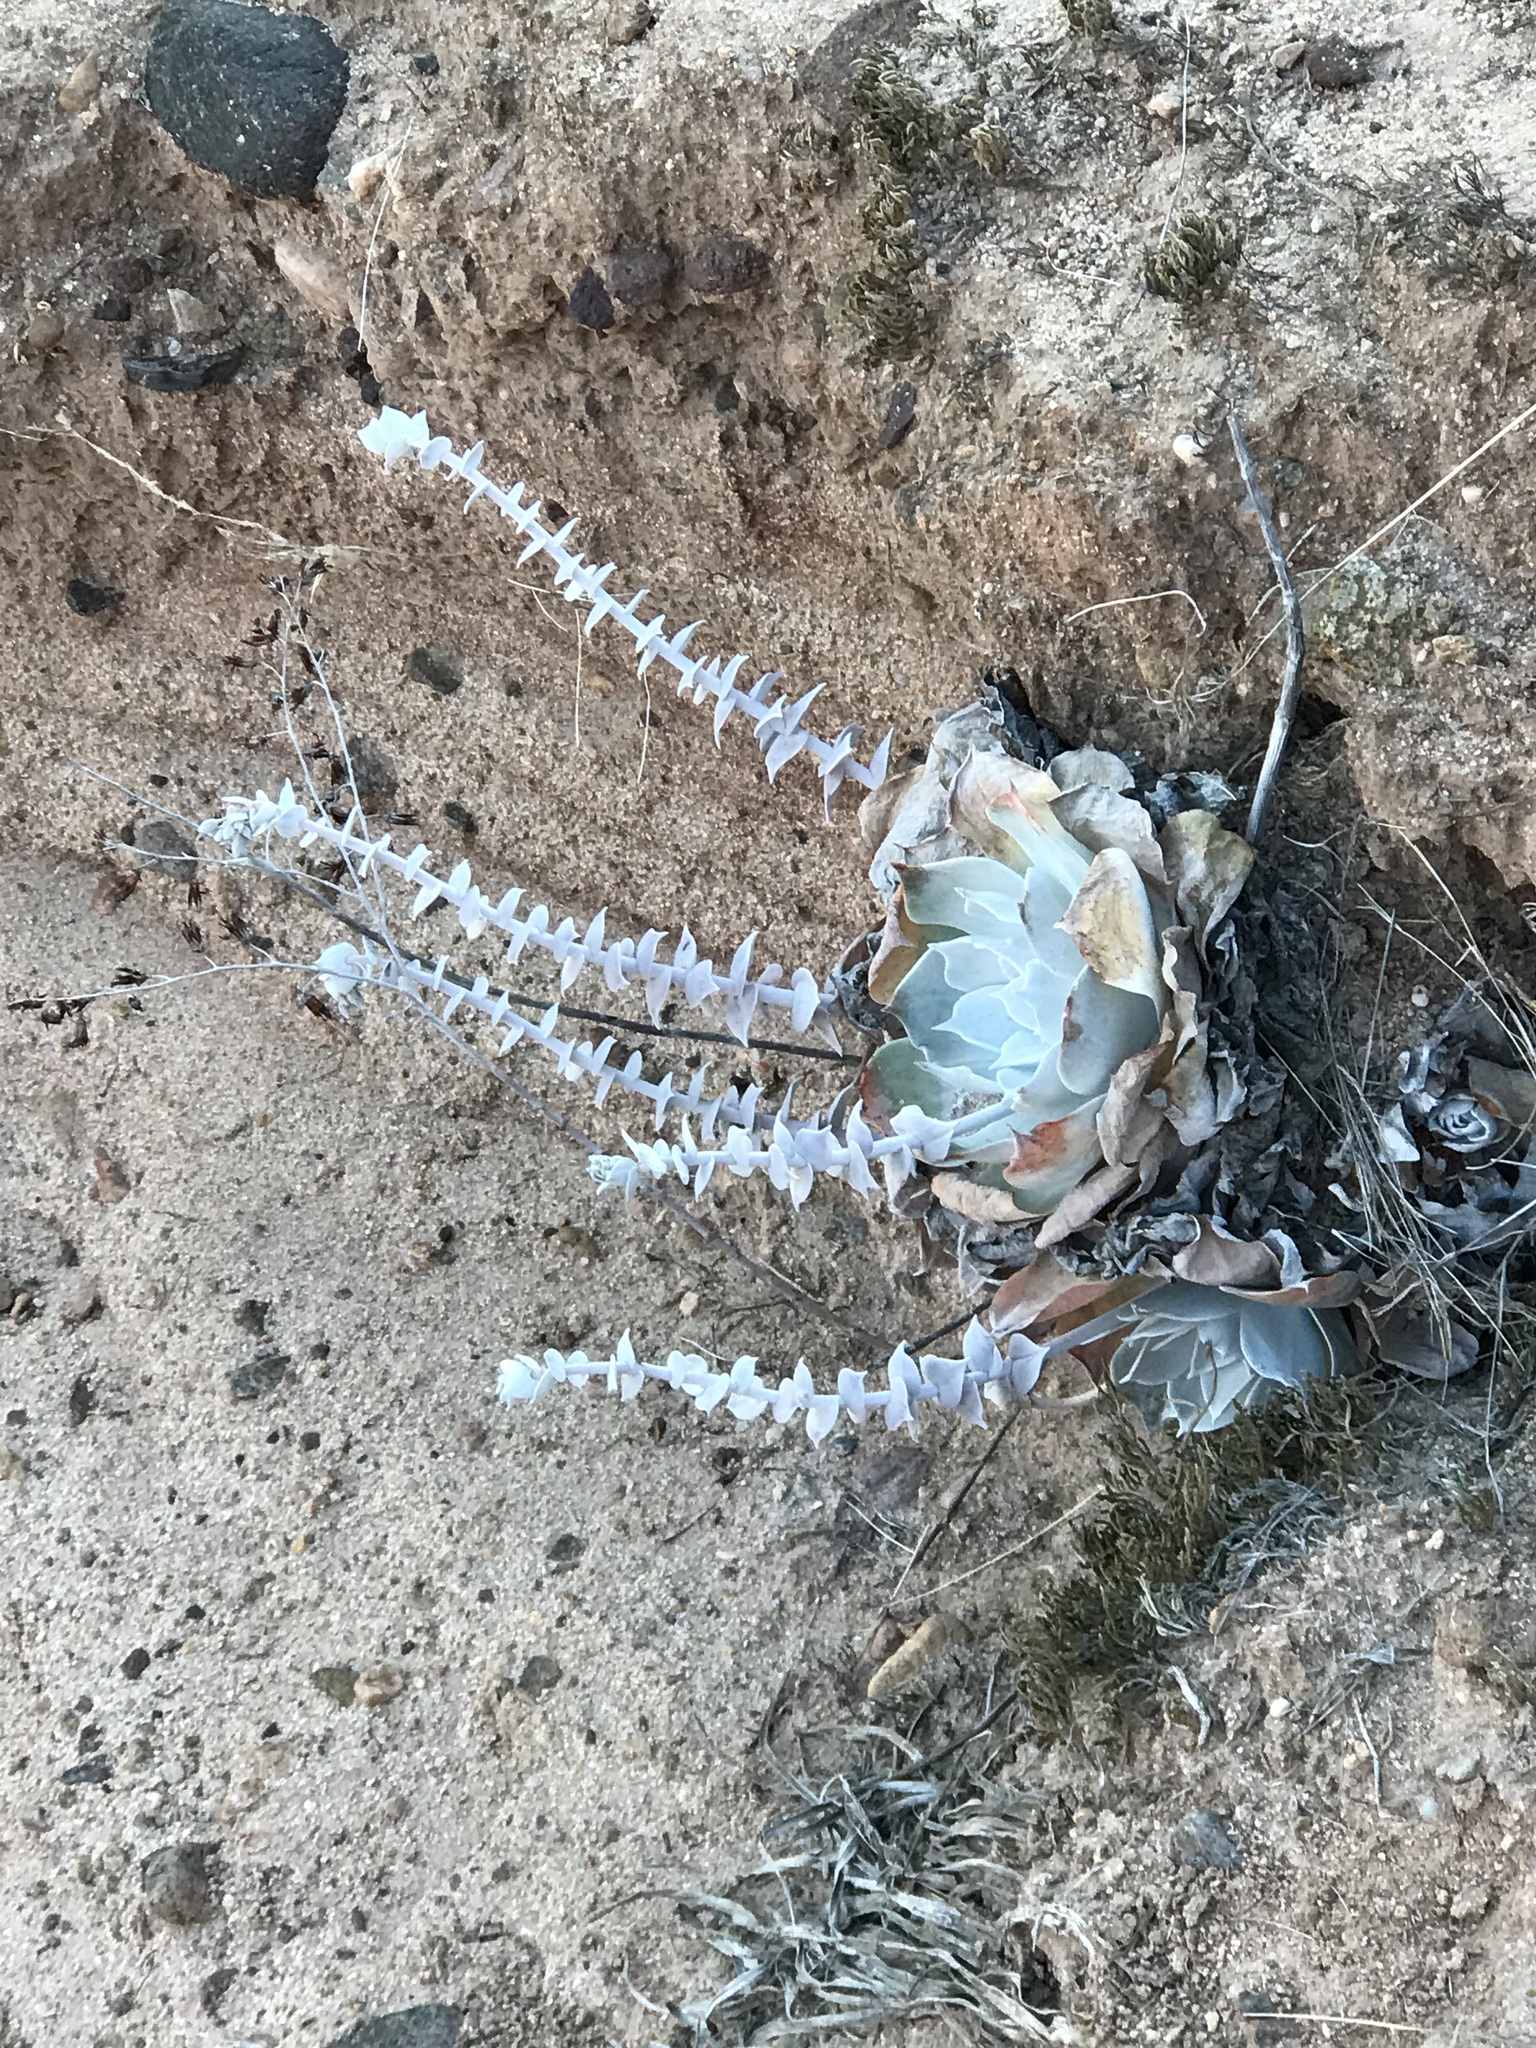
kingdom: Plantae
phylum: Tracheophyta
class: Magnoliopsida
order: Saxifragales
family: Crassulaceae
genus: Dudleya
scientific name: Dudleya pulverulenta
